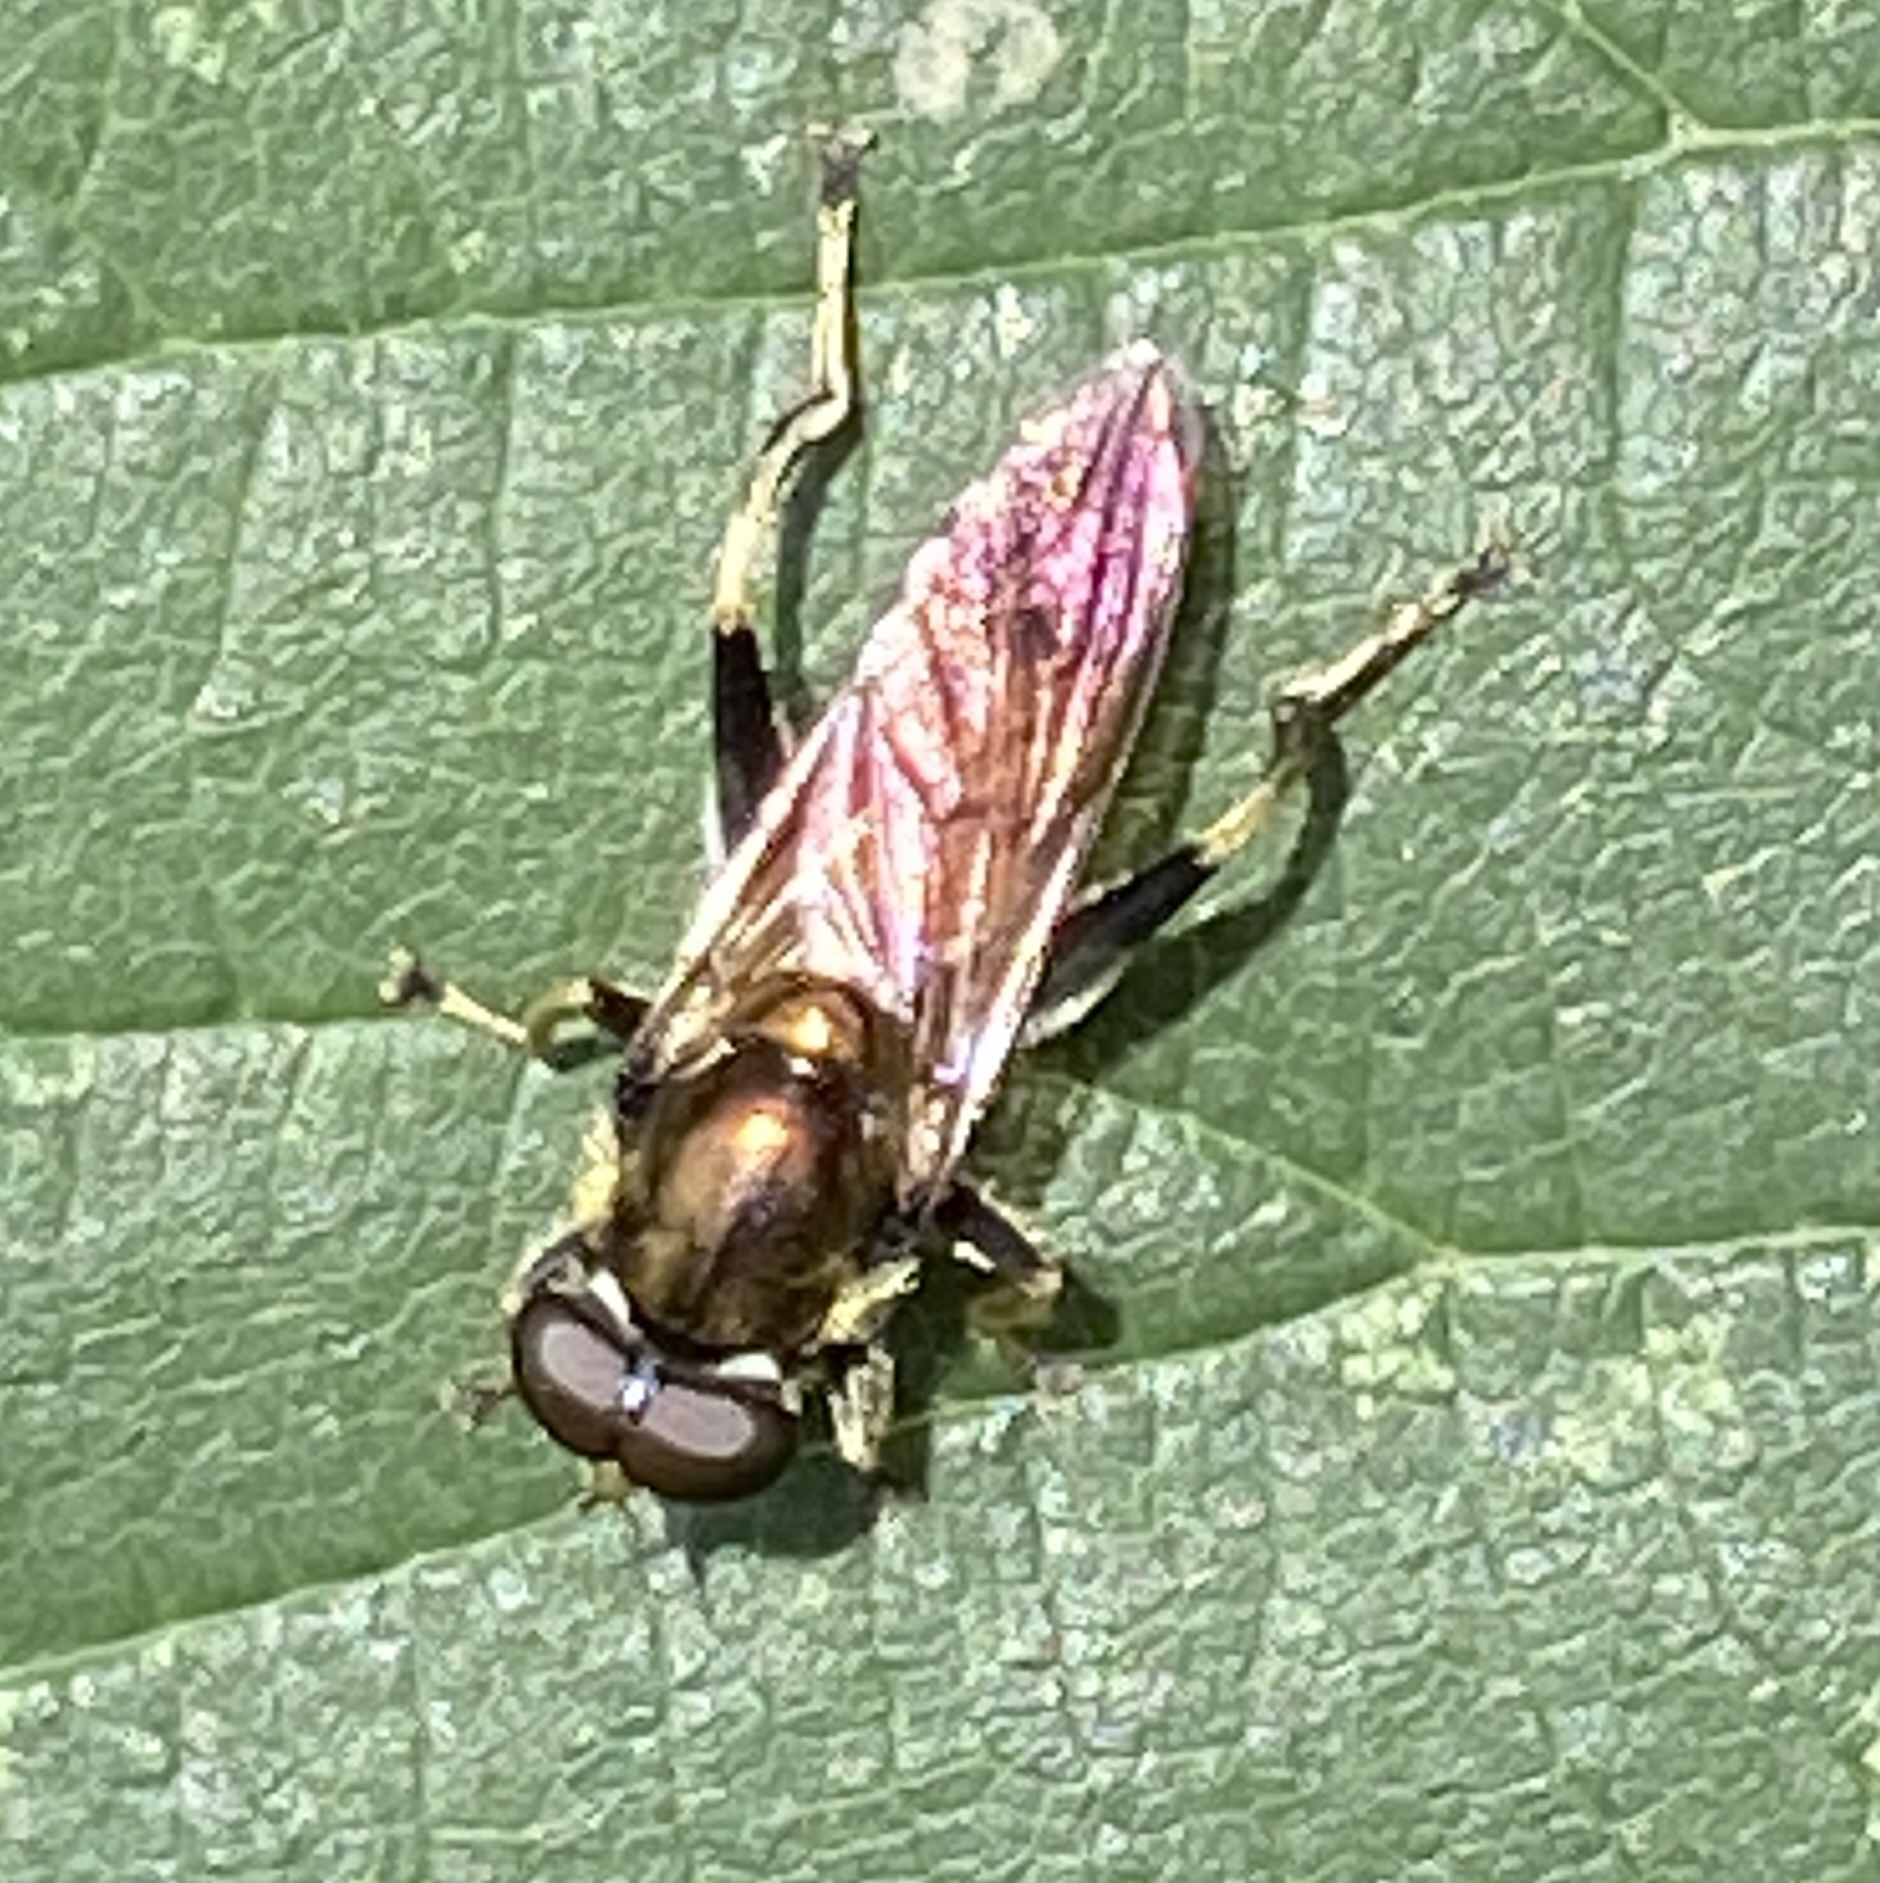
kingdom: Animalia
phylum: Arthropoda
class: Insecta
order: Diptera
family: Syrphidae
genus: Xylota
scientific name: Xylota segnis
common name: Brown-toed forest fly
